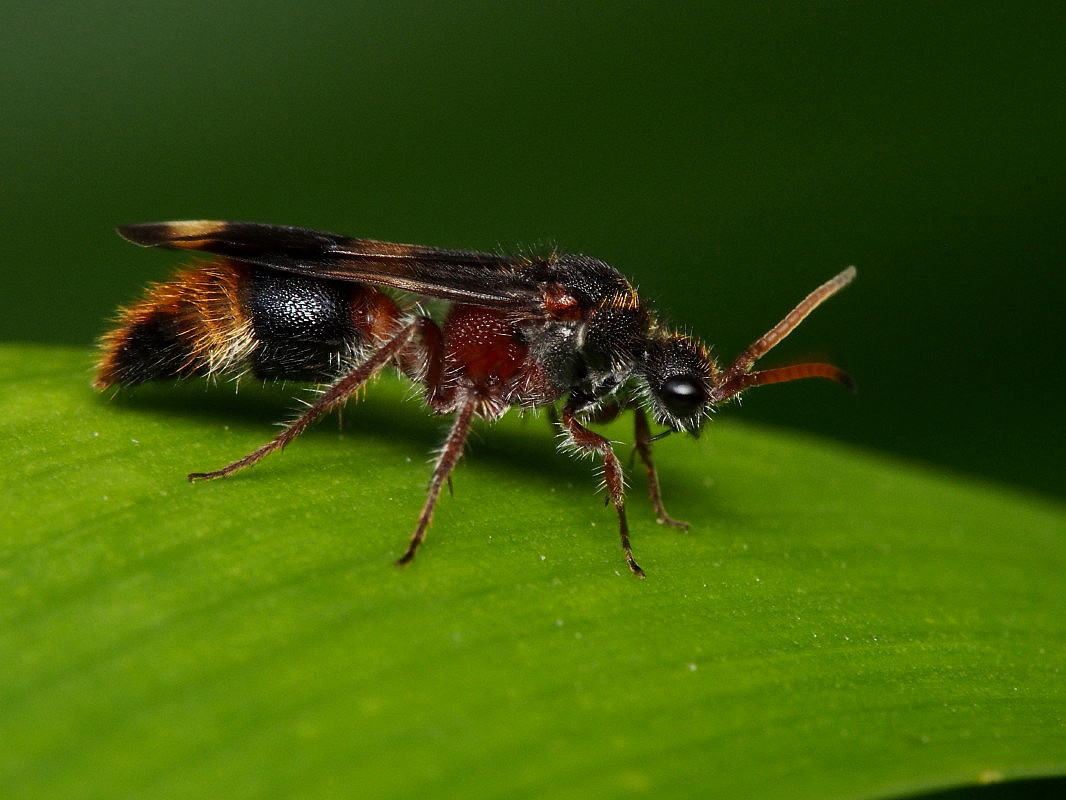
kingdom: Animalia
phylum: Arthropoda
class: Insecta
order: Hymenoptera
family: Mutillidae
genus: Ephutomorpha
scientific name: Ephutomorpha bivulnerata
